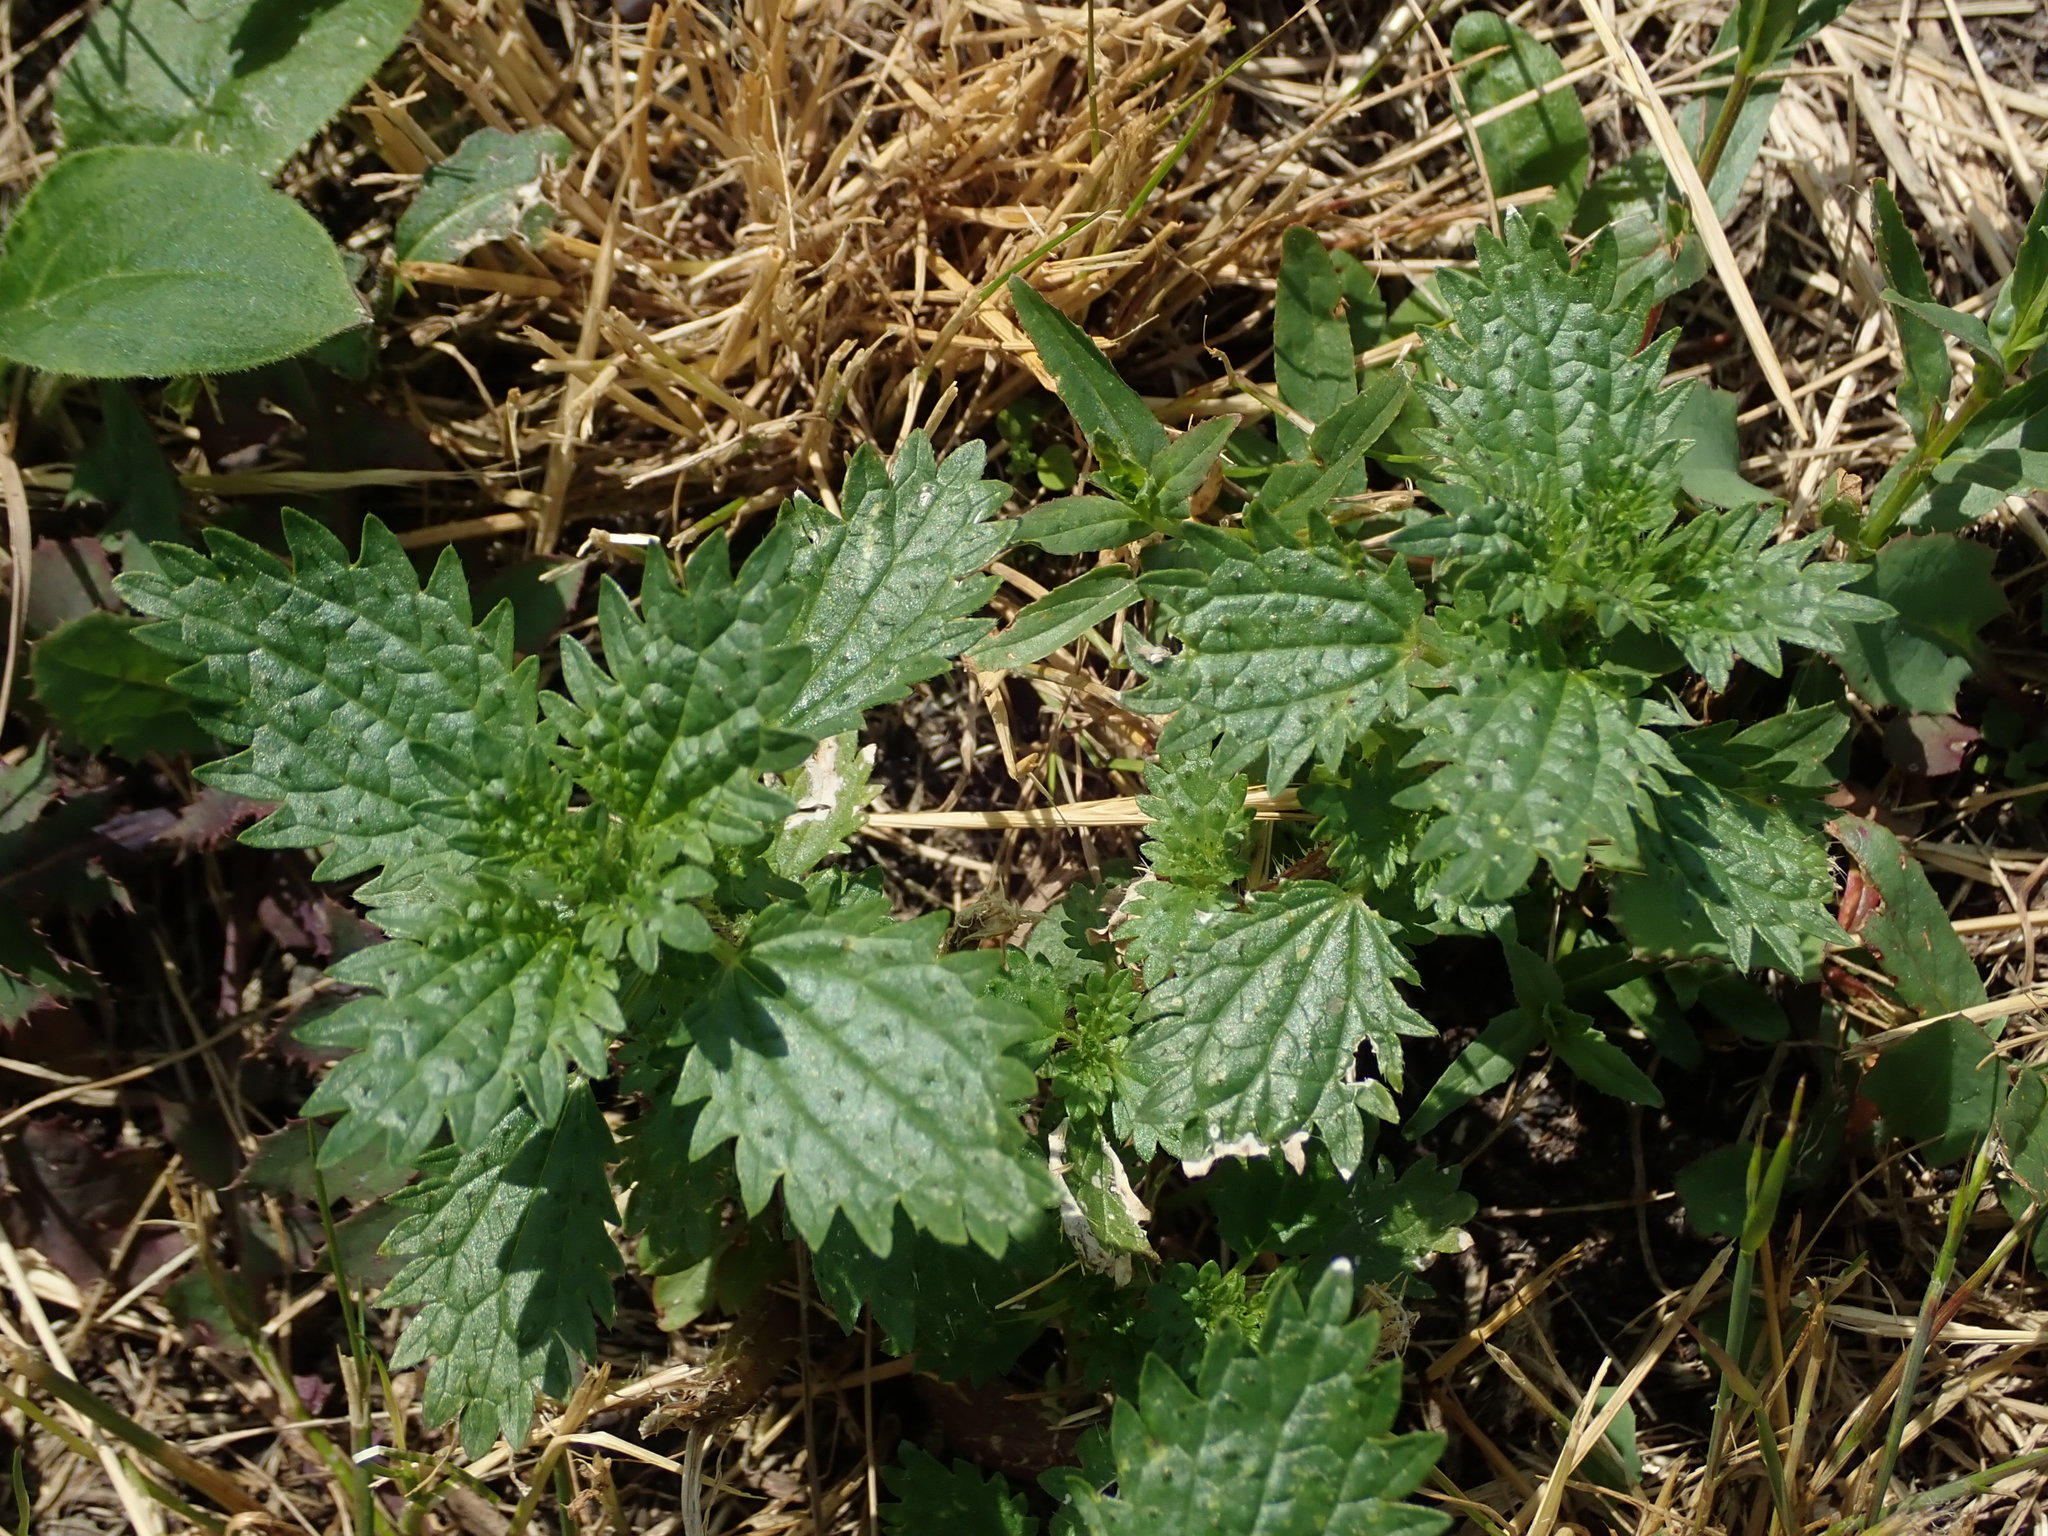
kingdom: Plantae
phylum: Tracheophyta
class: Magnoliopsida
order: Rosales
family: Urticaceae
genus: Urtica
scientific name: Urtica urens
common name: Dwarf nettle
